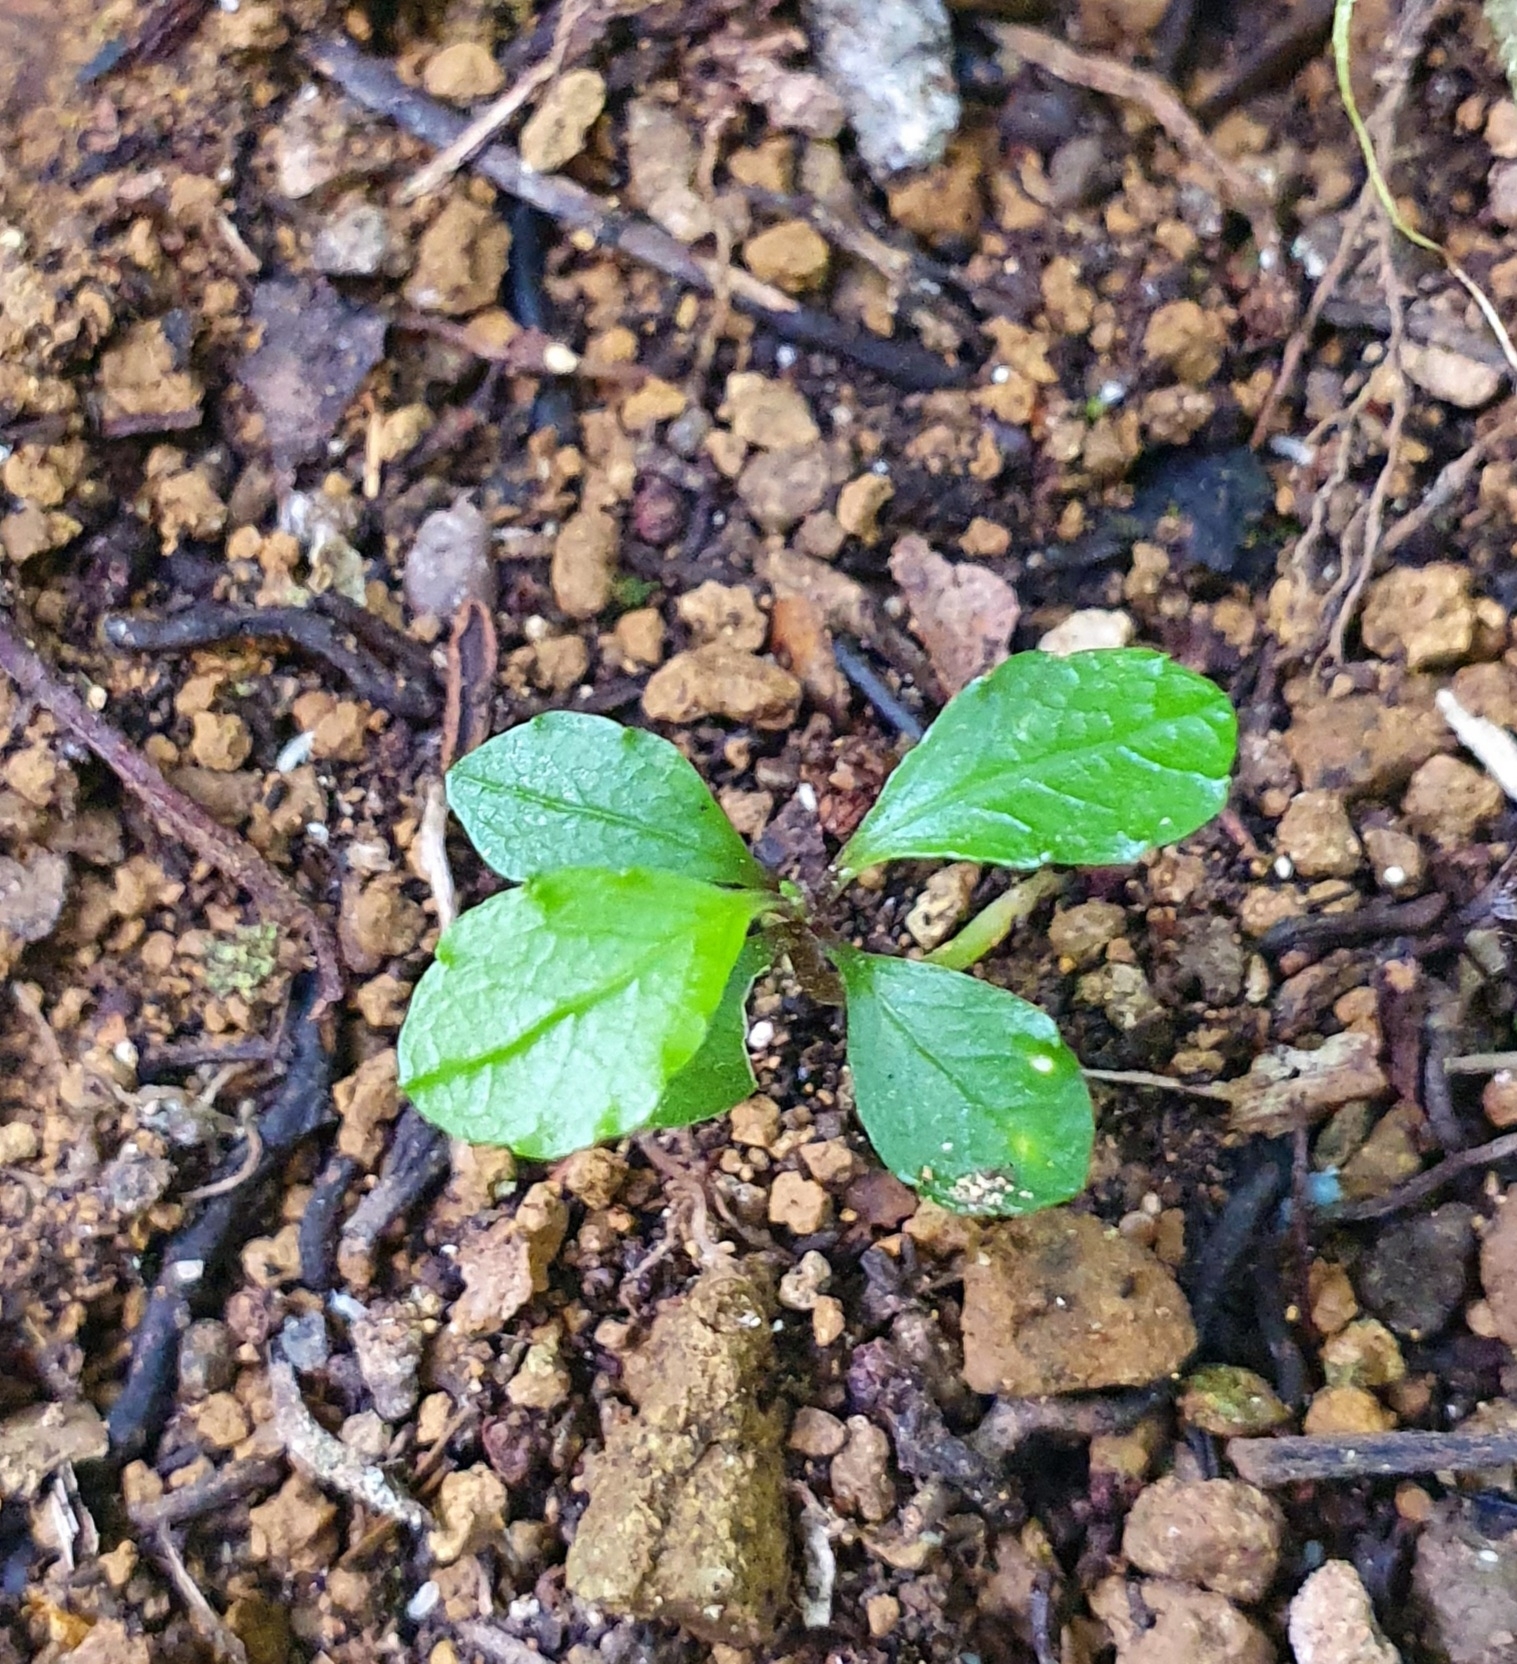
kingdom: Plantae
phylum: Tracheophyta
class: Magnoliopsida
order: Malpighiales
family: Violaceae
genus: Melicytus
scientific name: Melicytus ramiflorus
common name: Mahoe
